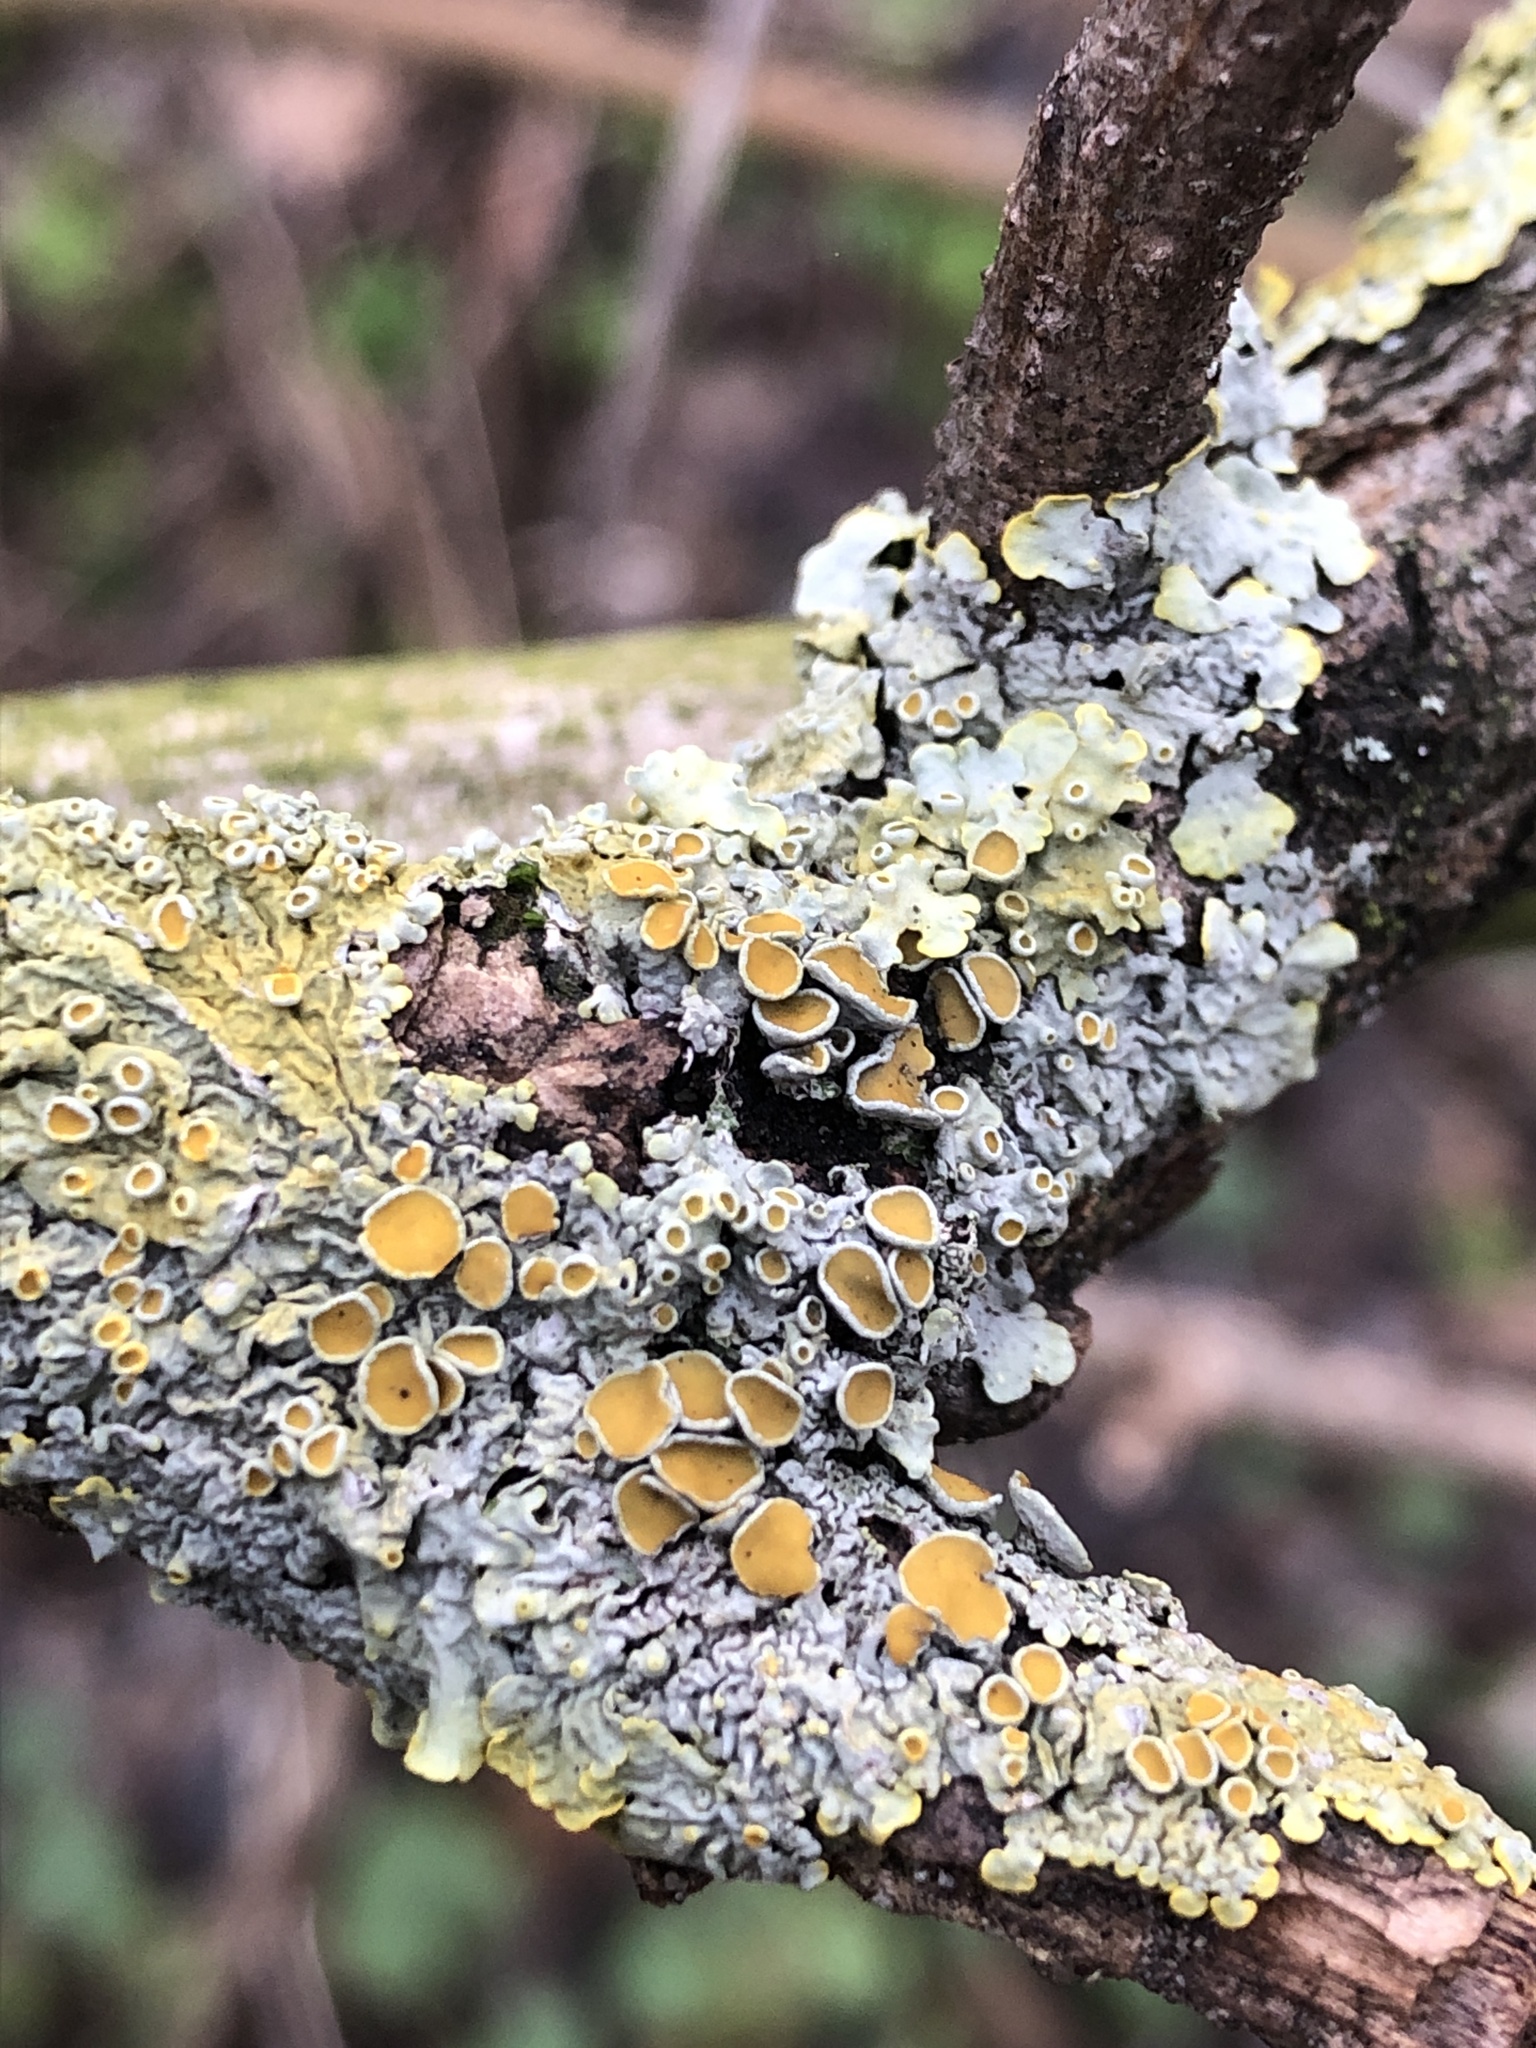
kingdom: Fungi
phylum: Ascomycota
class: Lecanoromycetes
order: Teloschistales
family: Teloschistaceae
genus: Xanthoria
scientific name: Xanthoria parietina
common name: Common orange lichen
